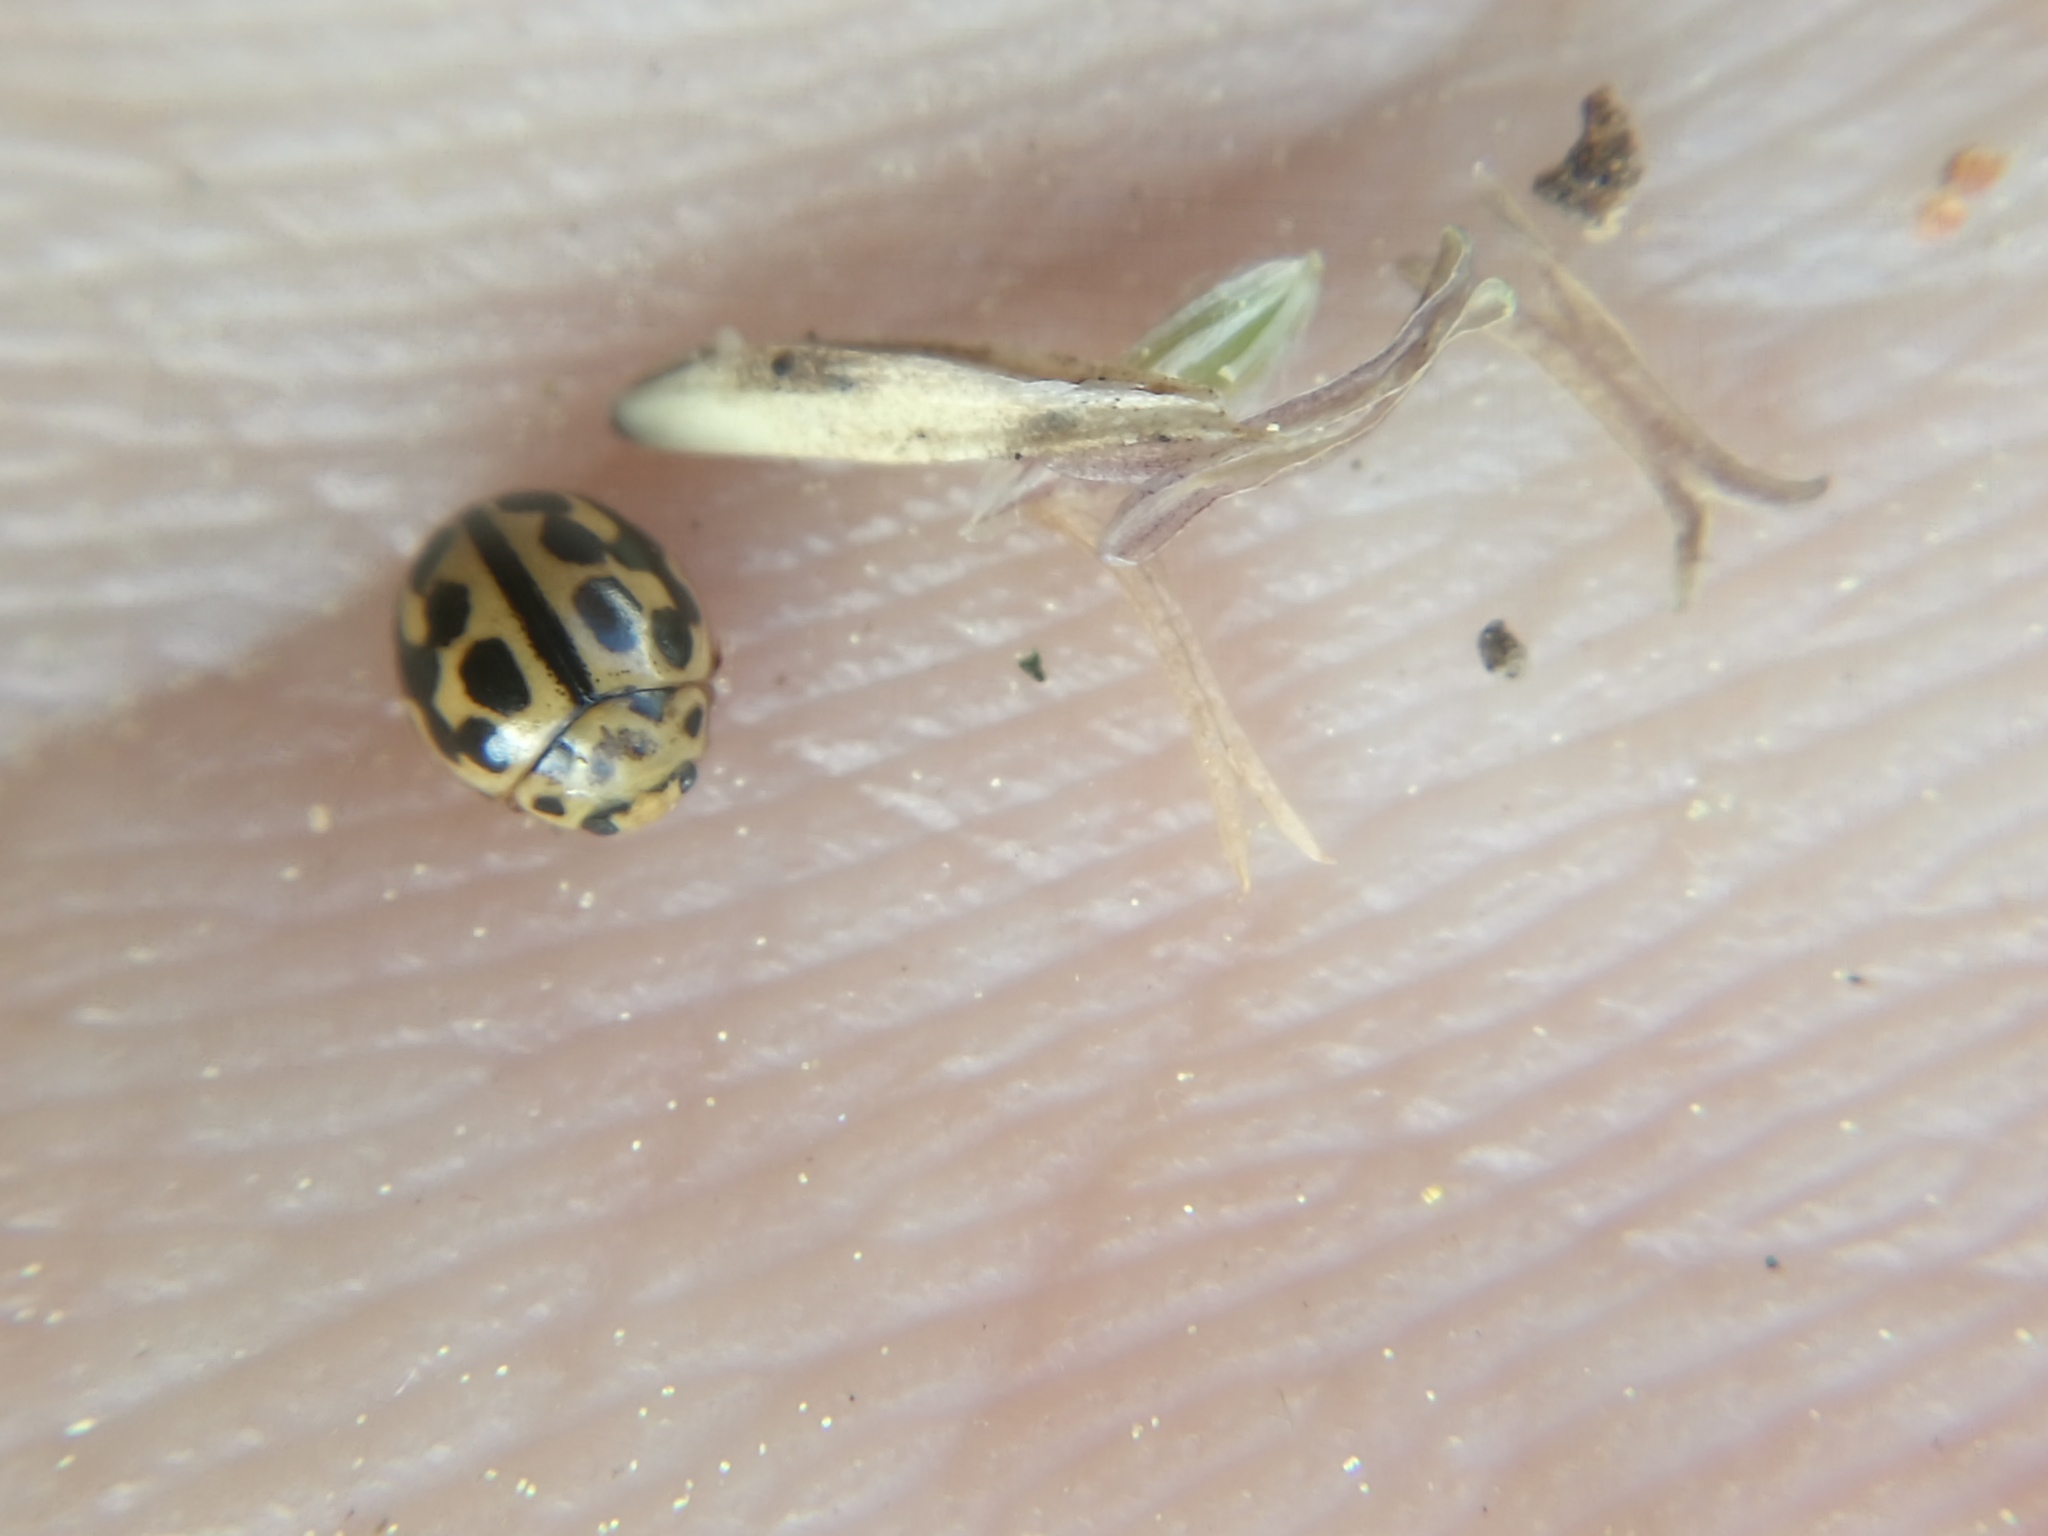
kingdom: Animalia
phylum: Arthropoda
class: Insecta
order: Coleoptera
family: Coccinellidae
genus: Tytthaspis
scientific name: Tytthaspis sedecimpunctata
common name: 16-spot ladybird
